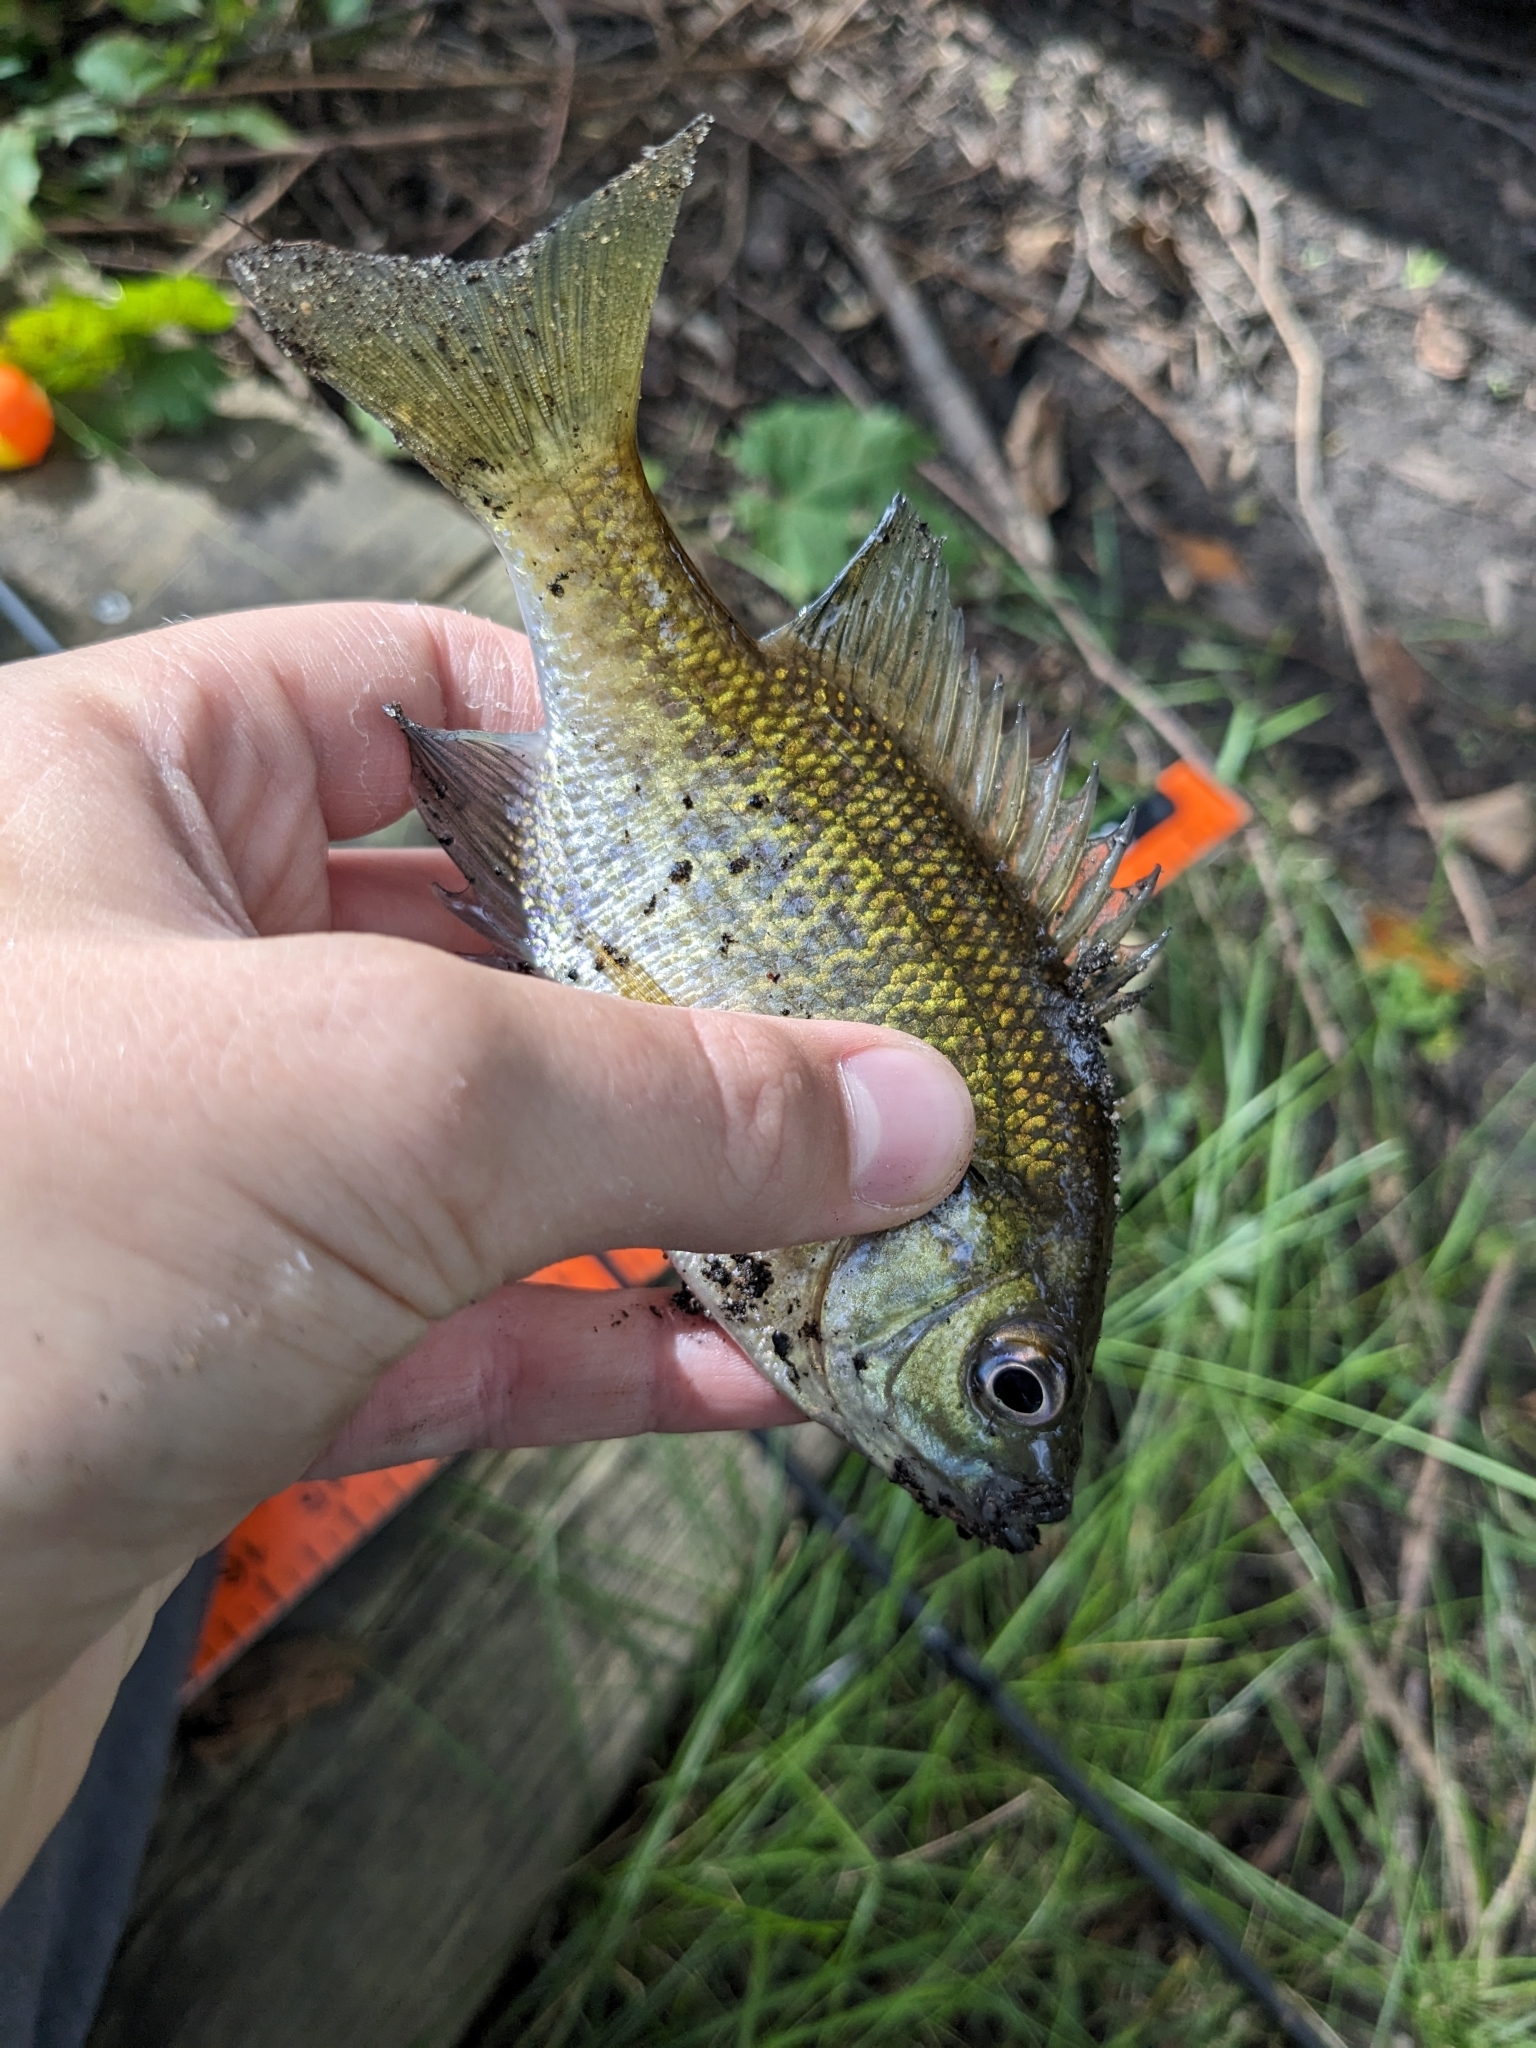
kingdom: Animalia
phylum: Chordata
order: Perciformes
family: Centrarchidae
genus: Lepomis
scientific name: Lepomis macrochirus
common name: Bluegill
